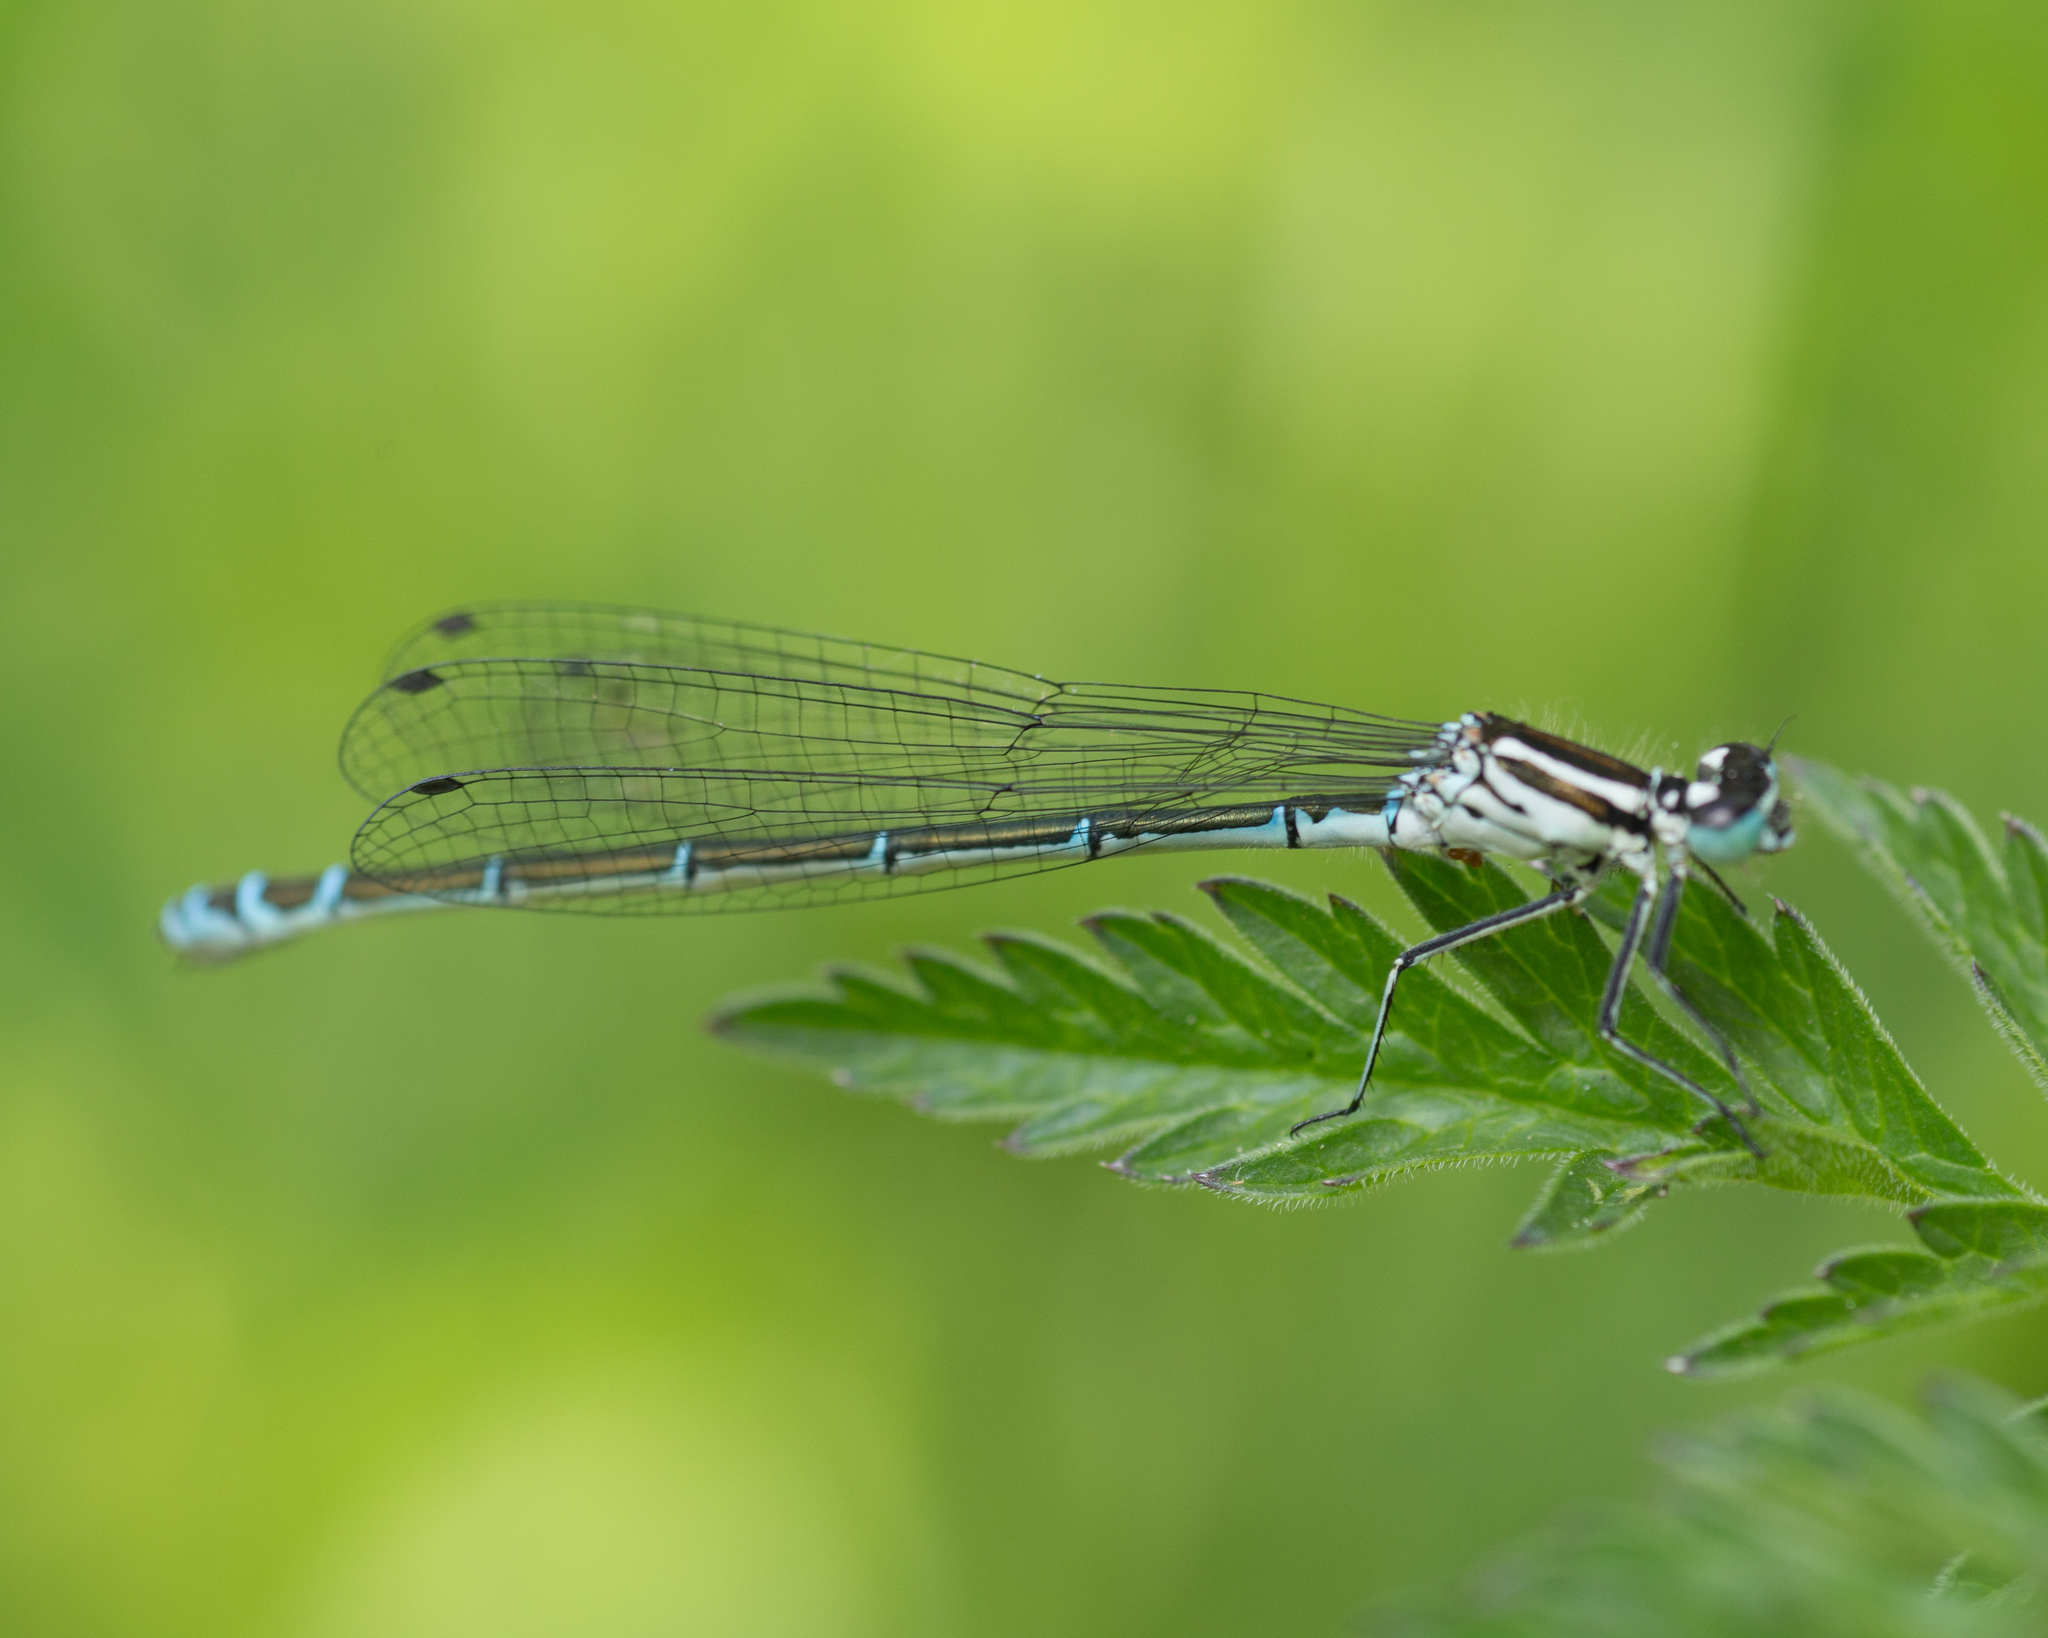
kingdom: Animalia
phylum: Arthropoda
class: Insecta
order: Odonata
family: Coenagrionidae
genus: Coenagrion
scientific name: Coenagrion puella
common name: Azure damselfly
